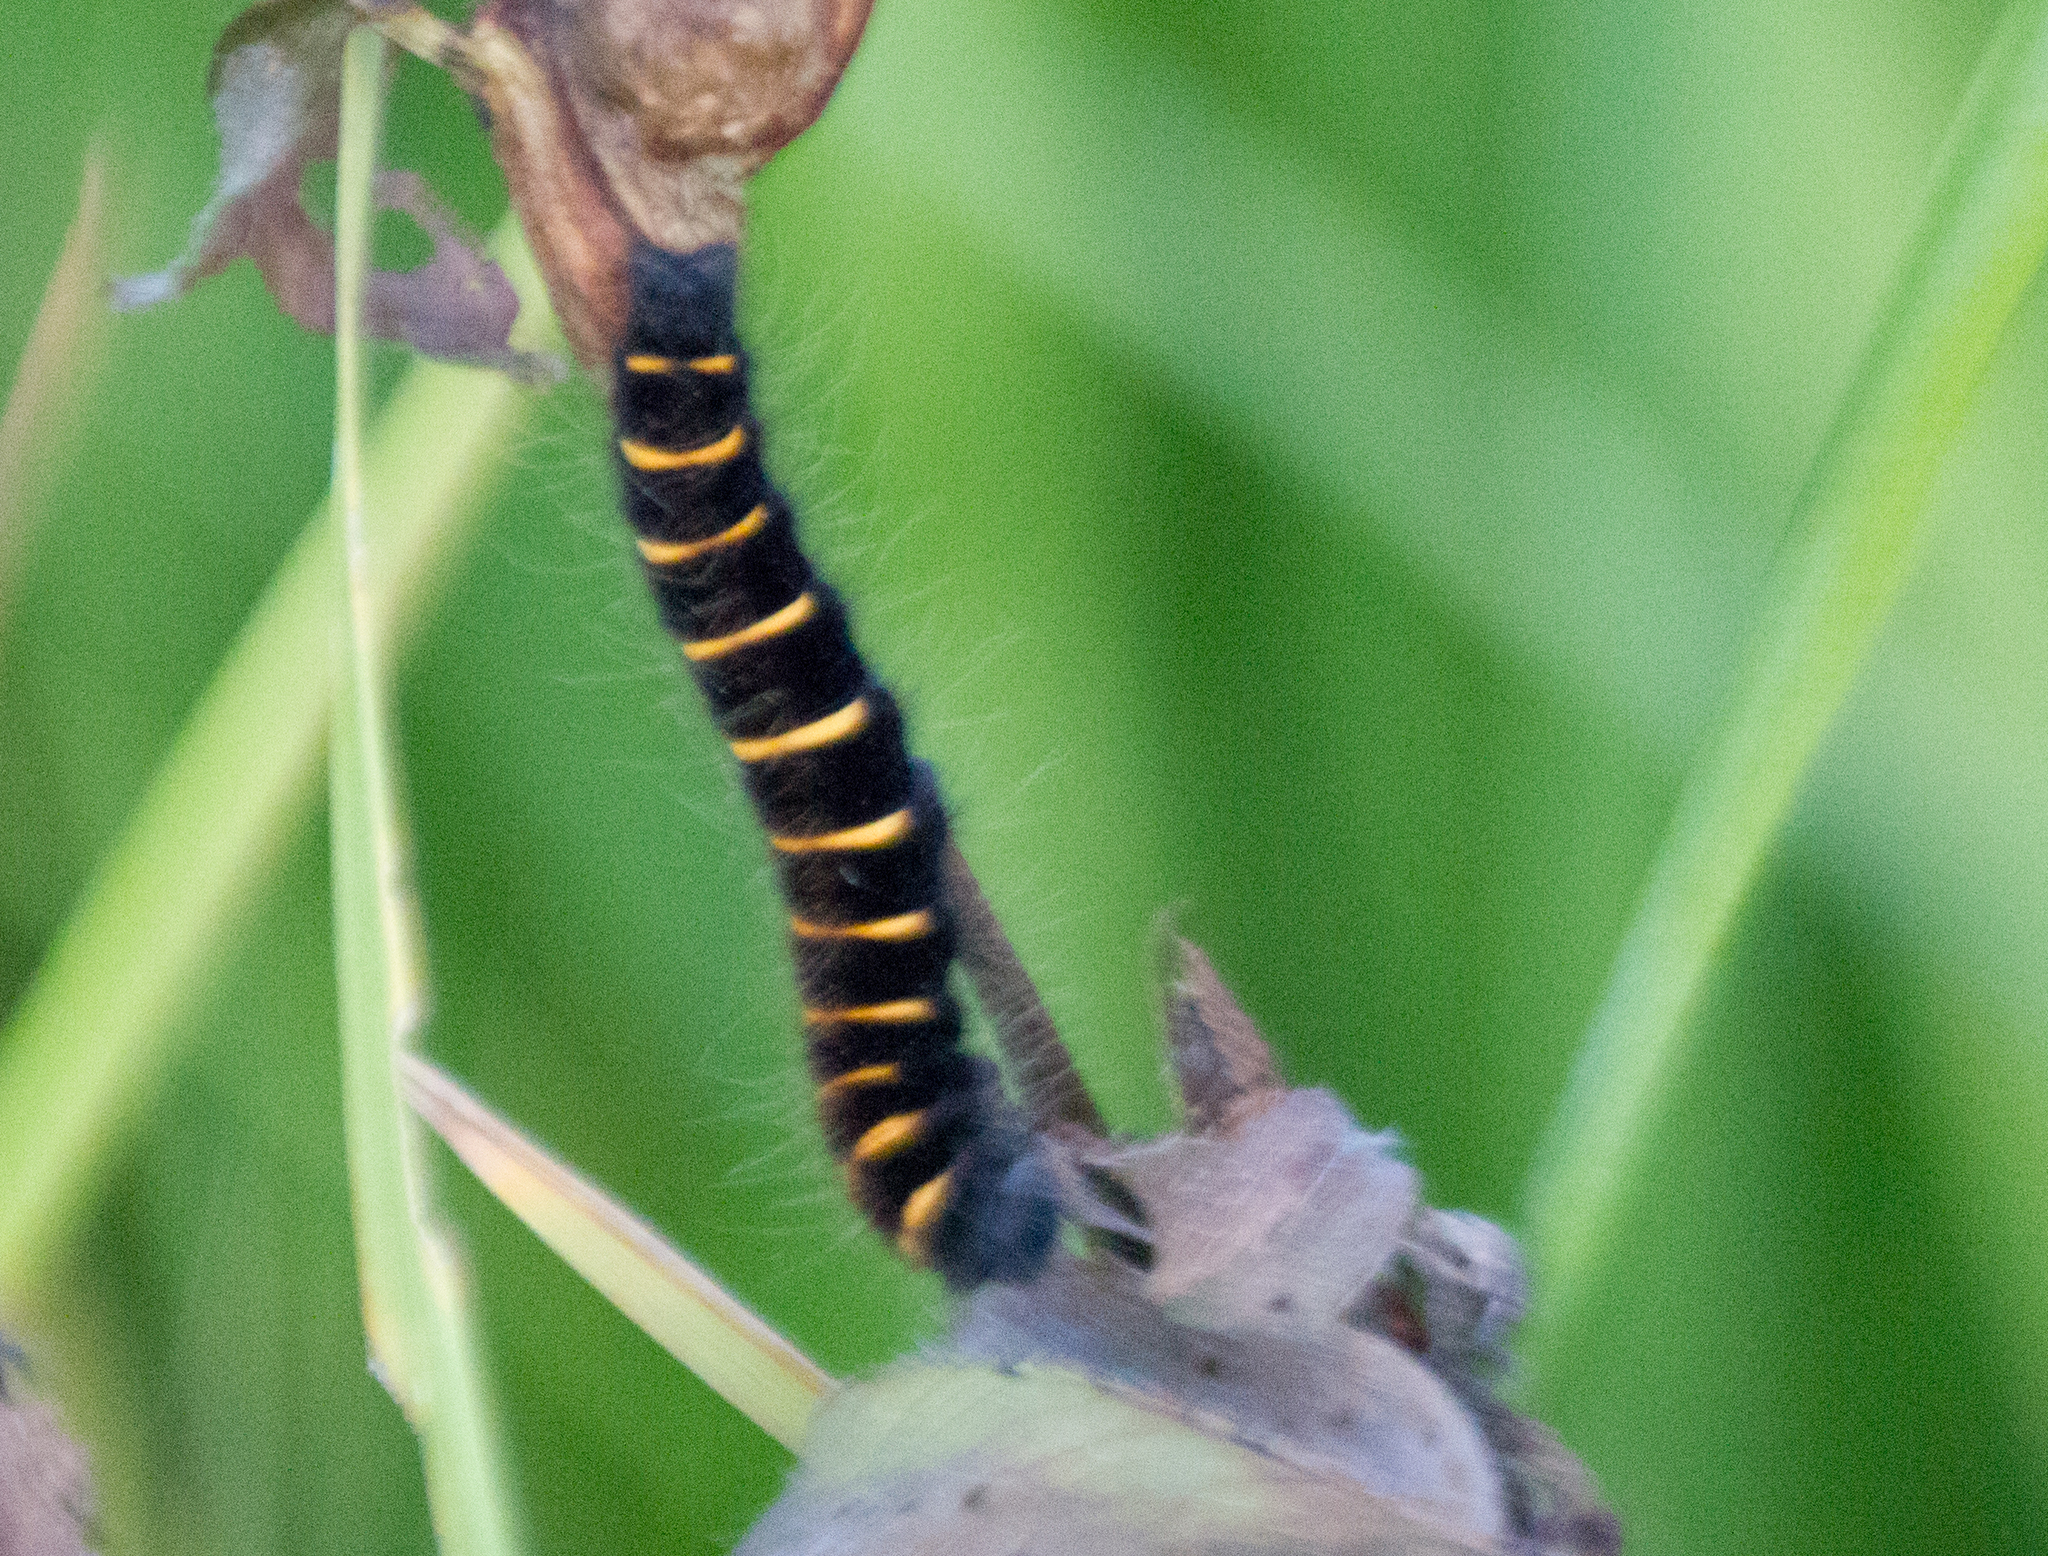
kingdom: Animalia
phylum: Arthropoda
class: Insecta
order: Lepidoptera
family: Lasiocampidae
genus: Macrothylacia
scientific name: Macrothylacia rubi
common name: Fox moth
